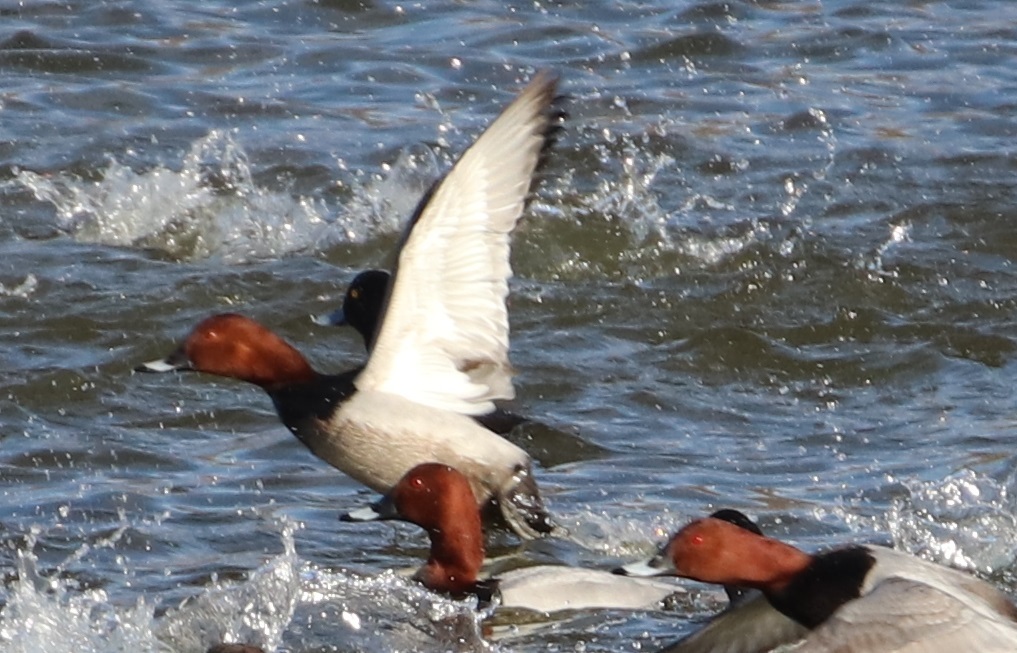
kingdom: Animalia
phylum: Chordata
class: Aves
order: Anseriformes
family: Anatidae
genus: Aythya
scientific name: Aythya ferina
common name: Common pochard
